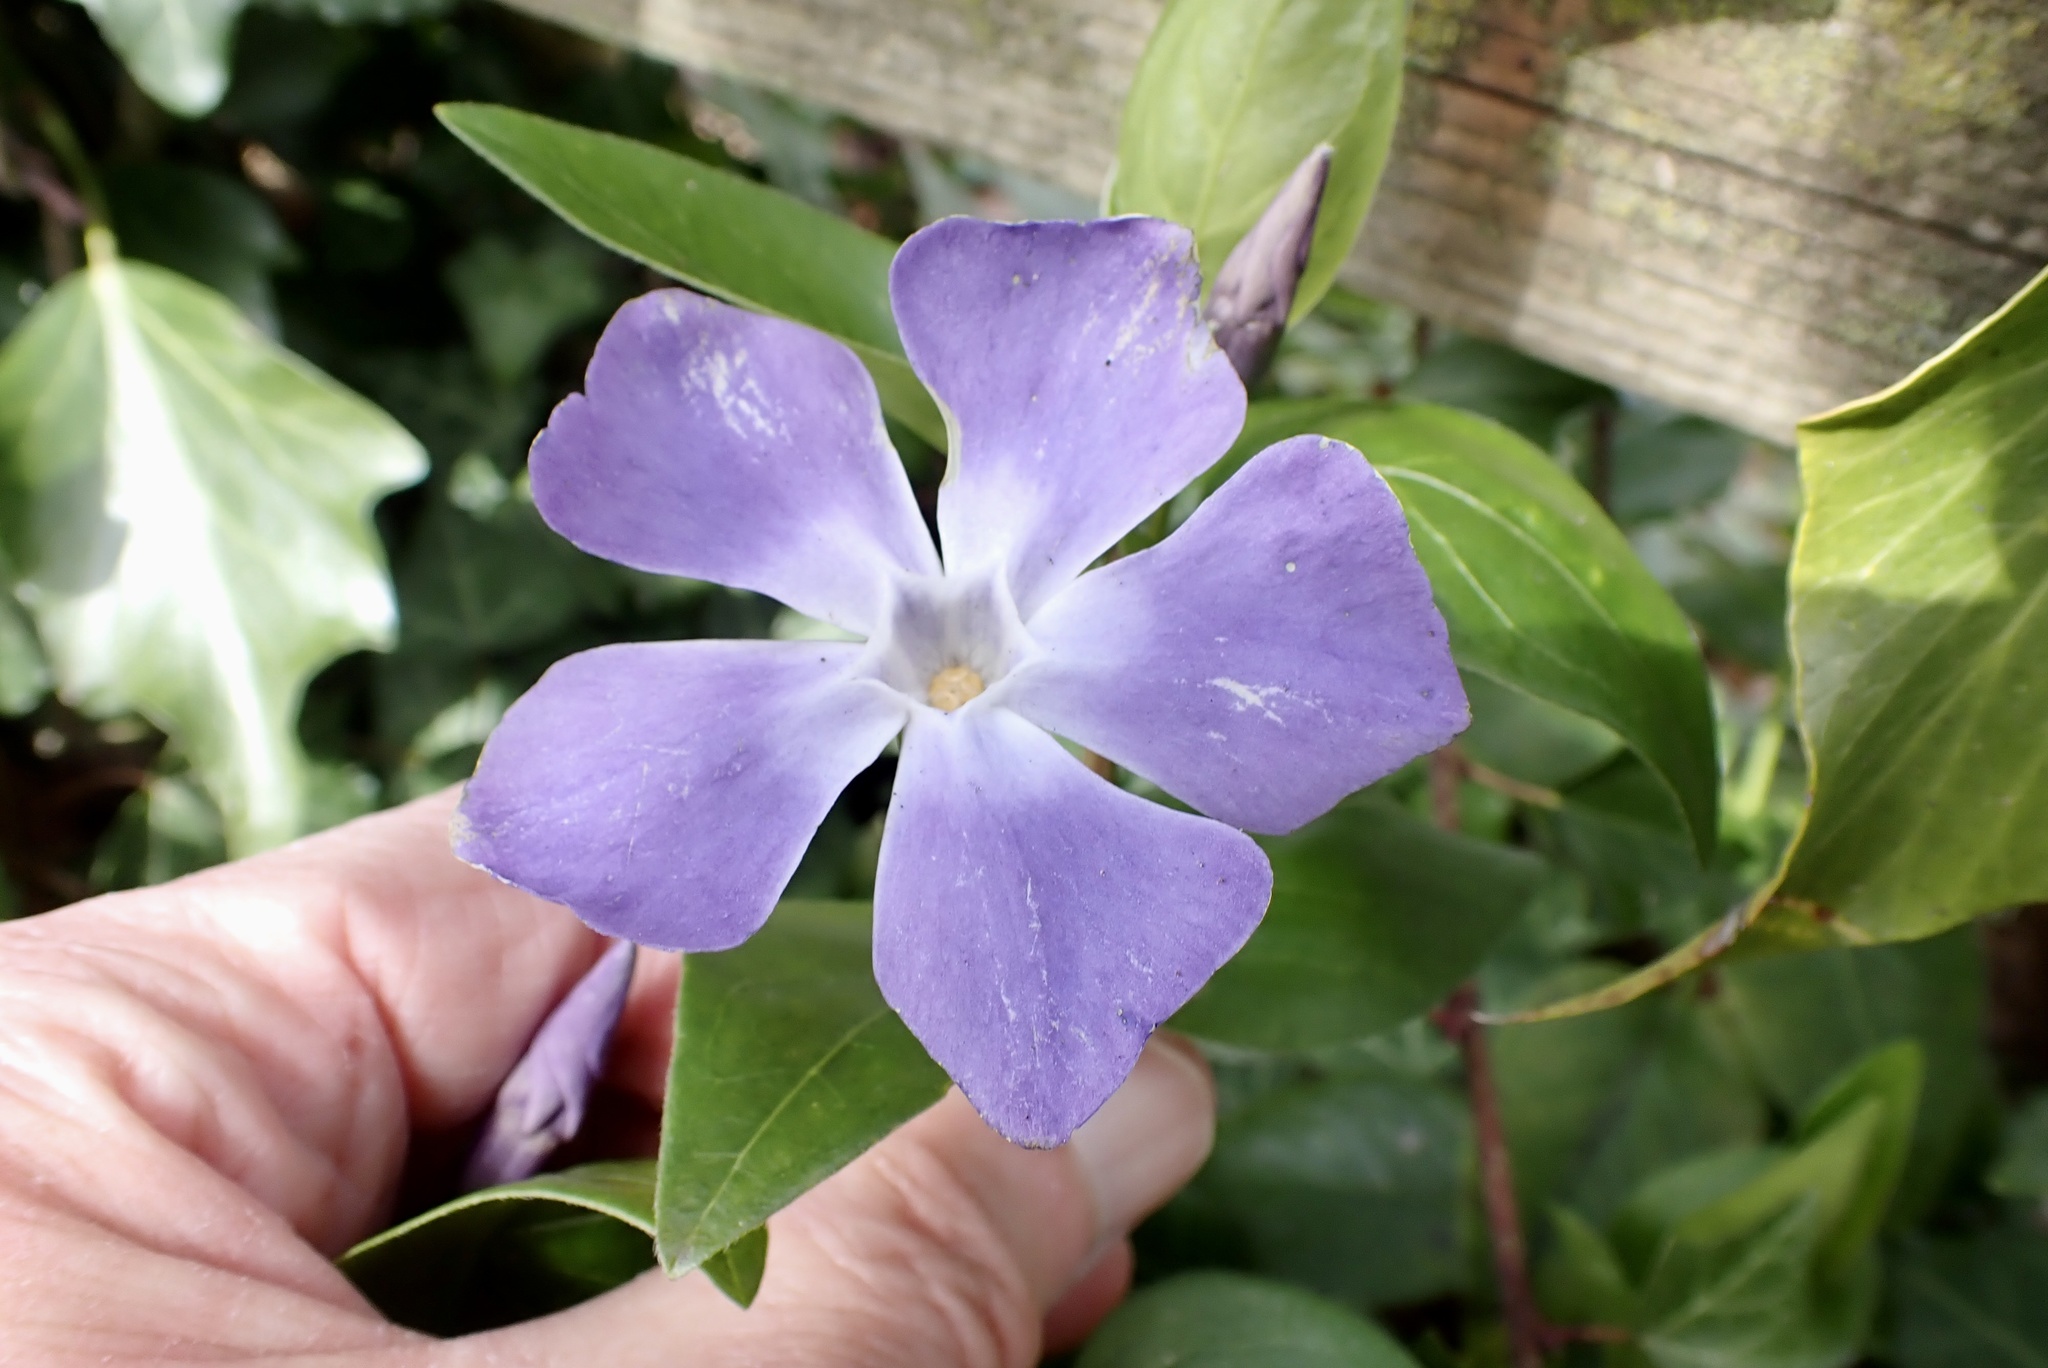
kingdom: Plantae
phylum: Tracheophyta
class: Magnoliopsida
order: Gentianales
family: Apocynaceae
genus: Vinca
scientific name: Vinca major
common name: Greater periwinkle
